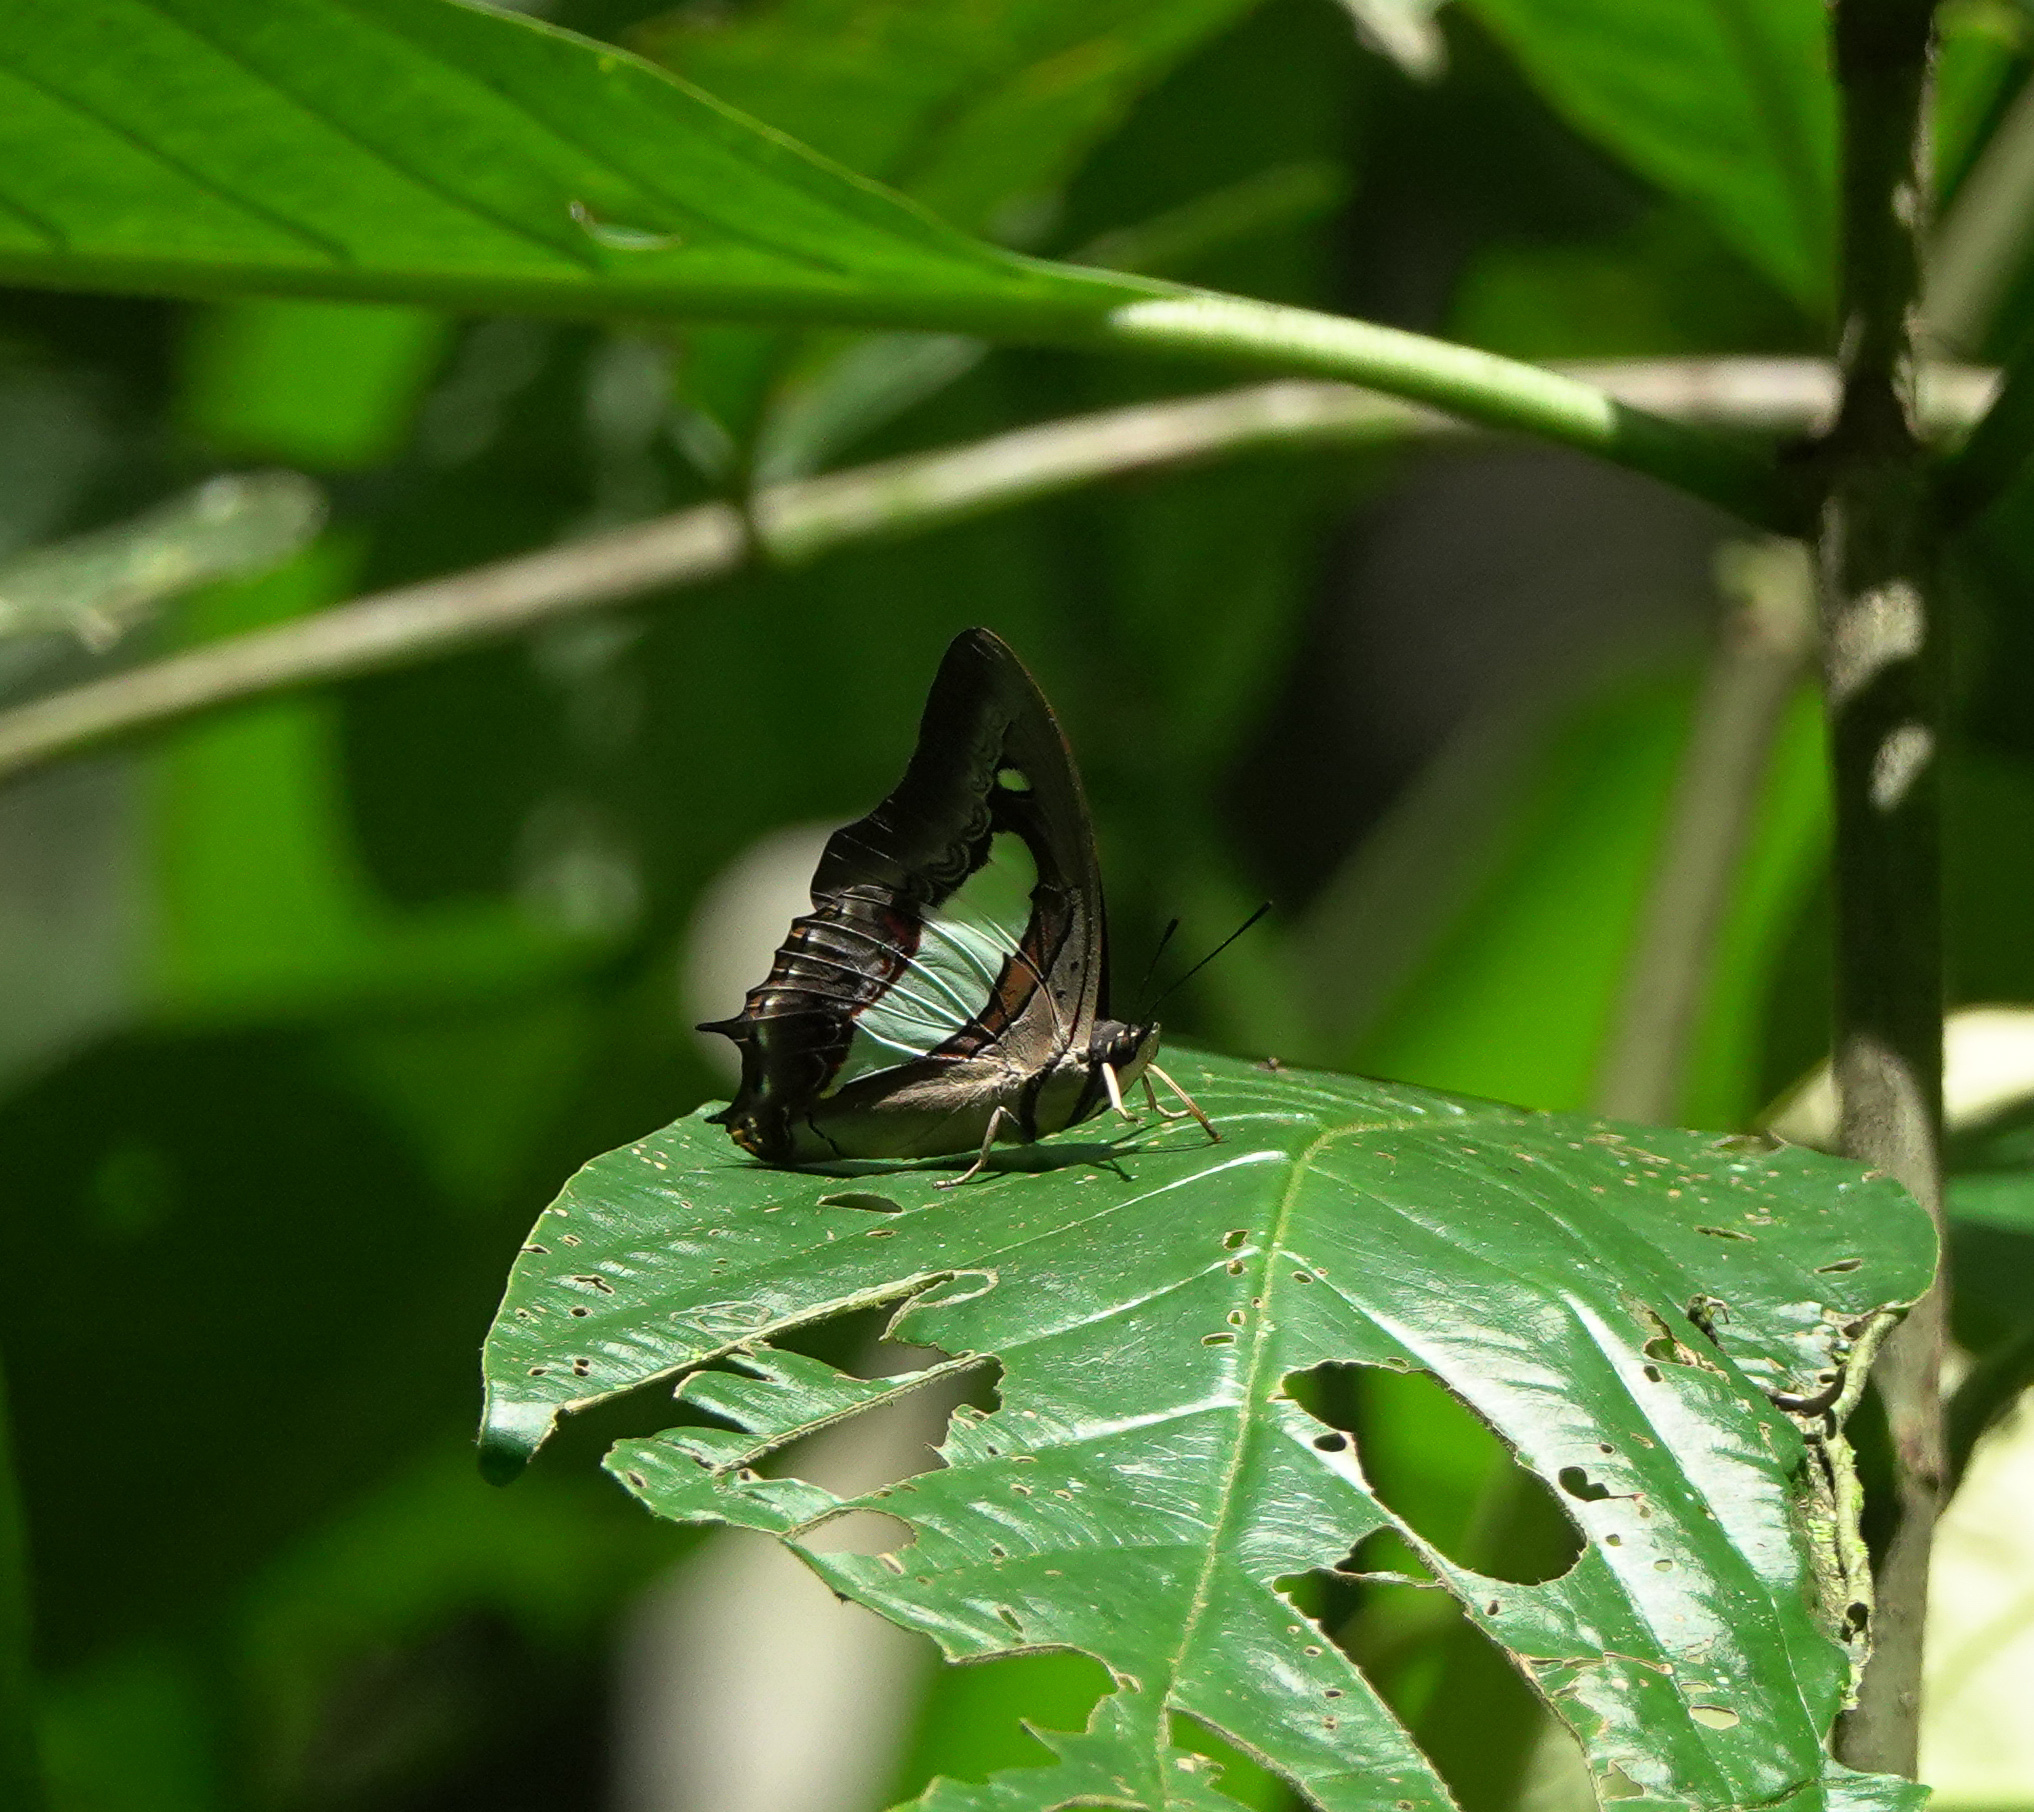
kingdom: Animalia
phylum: Arthropoda
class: Insecta
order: Lepidoptera
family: Nymphalidae
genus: Polyura
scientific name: Polyura
